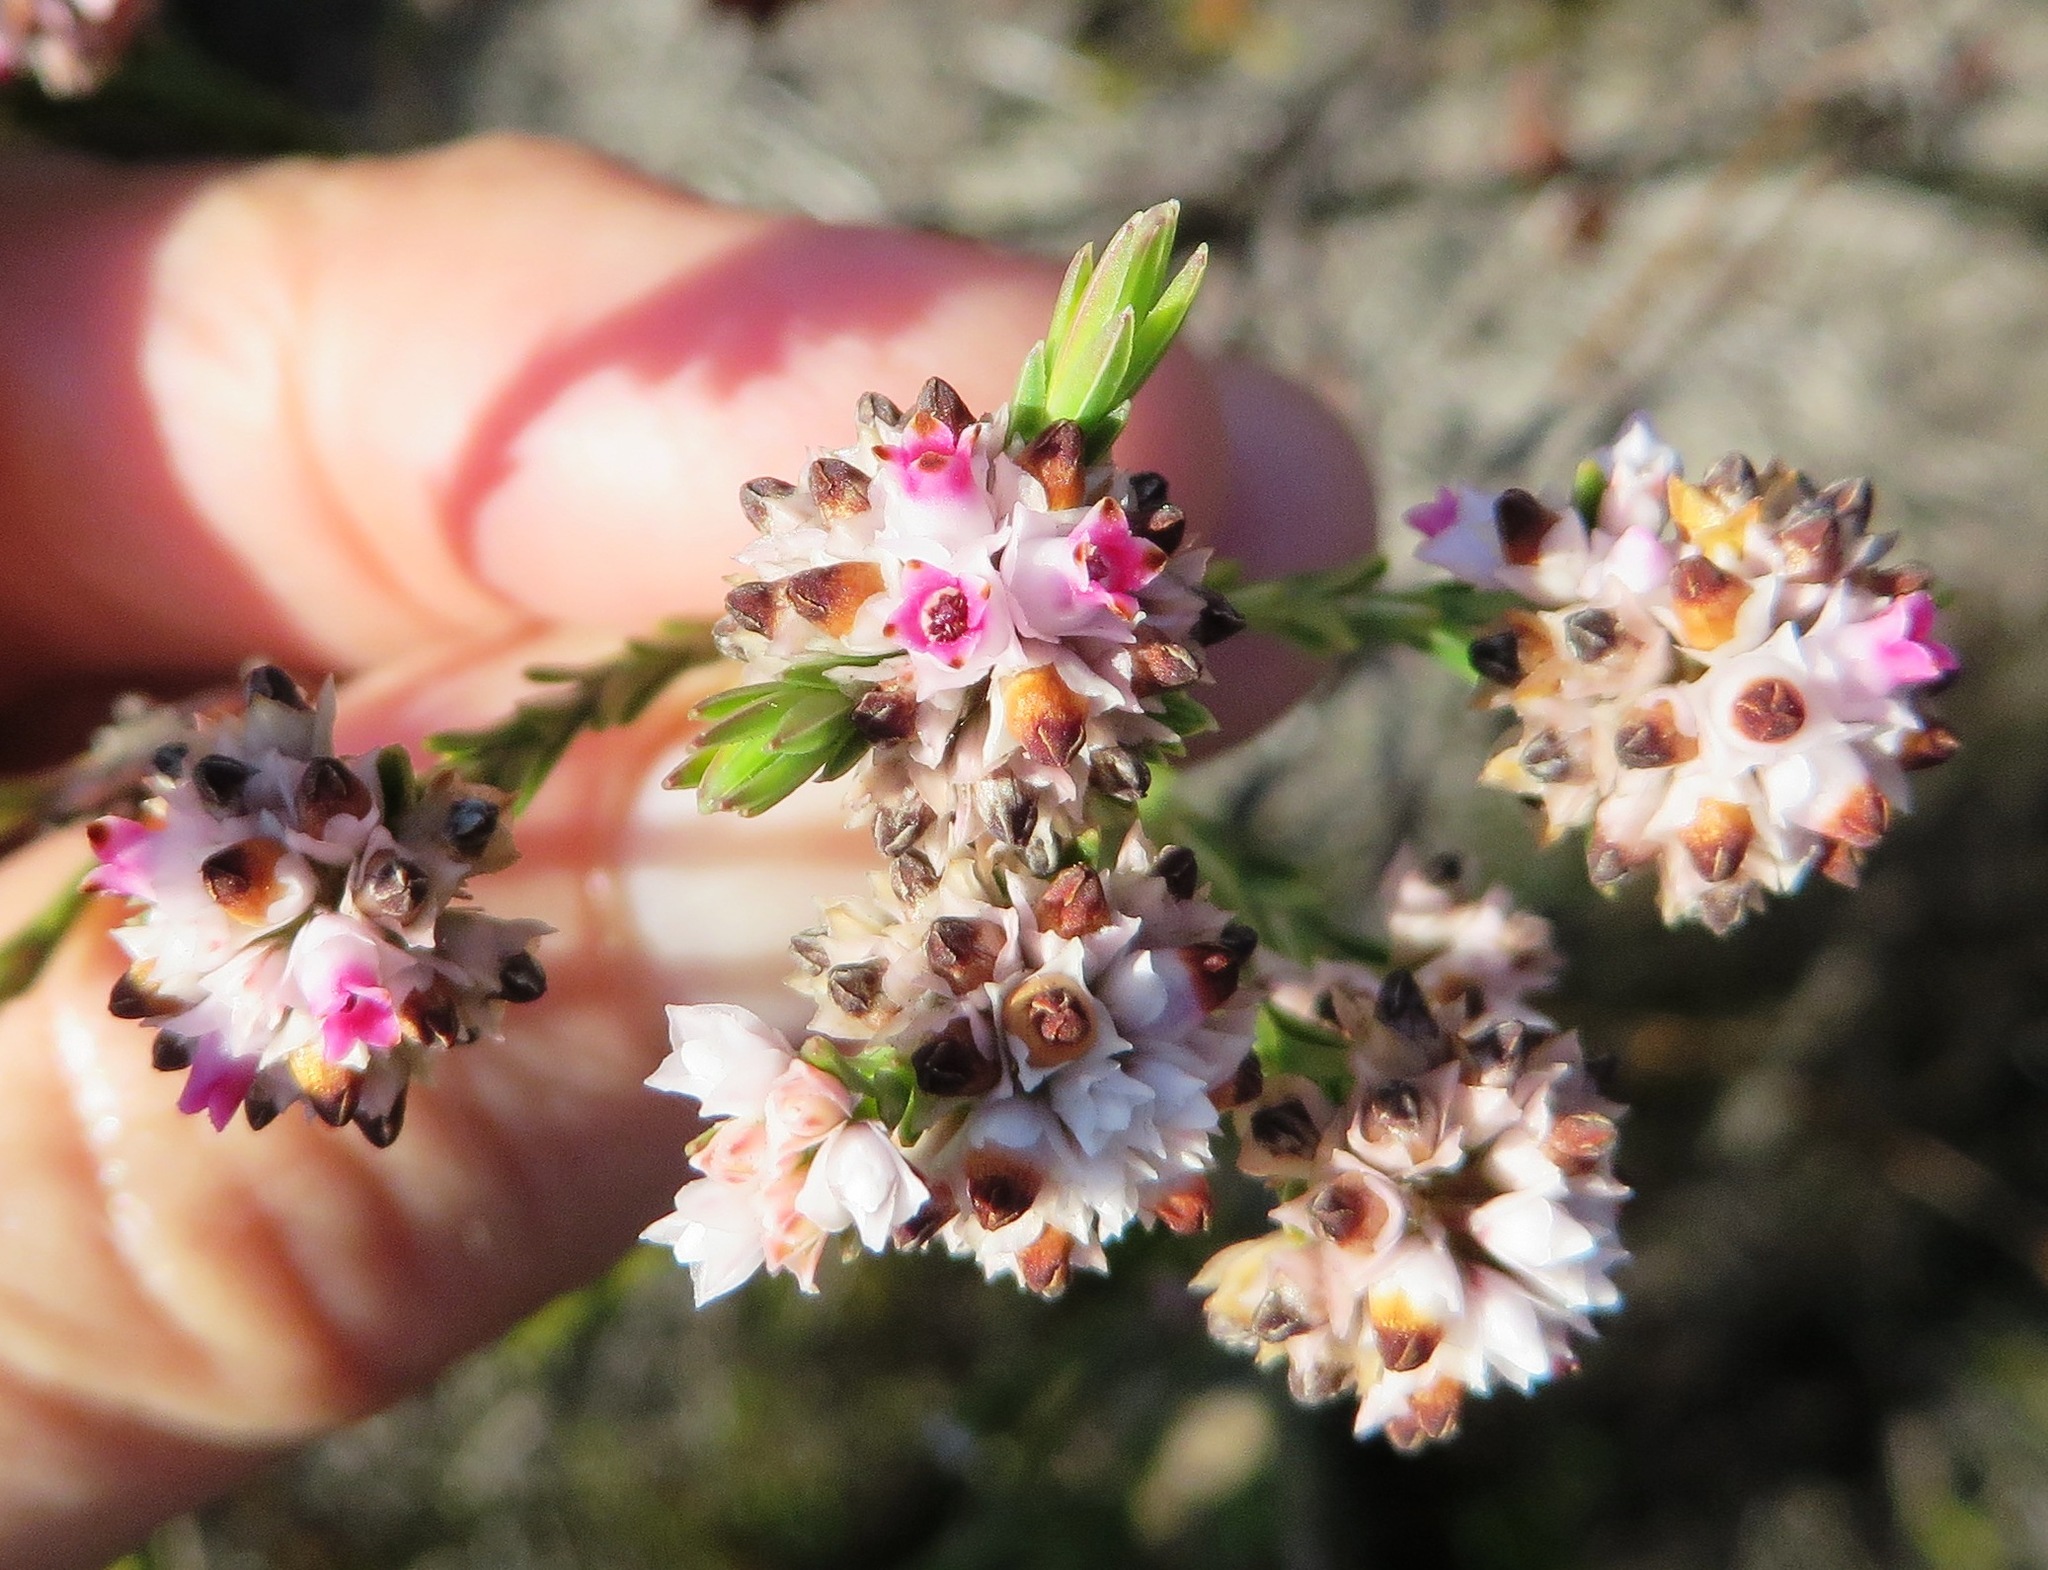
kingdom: Plantae
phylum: Tracheophyta
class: Magnoliopsida
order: Ericales
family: Ericaceae
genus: Erica
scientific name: Erica articularis
